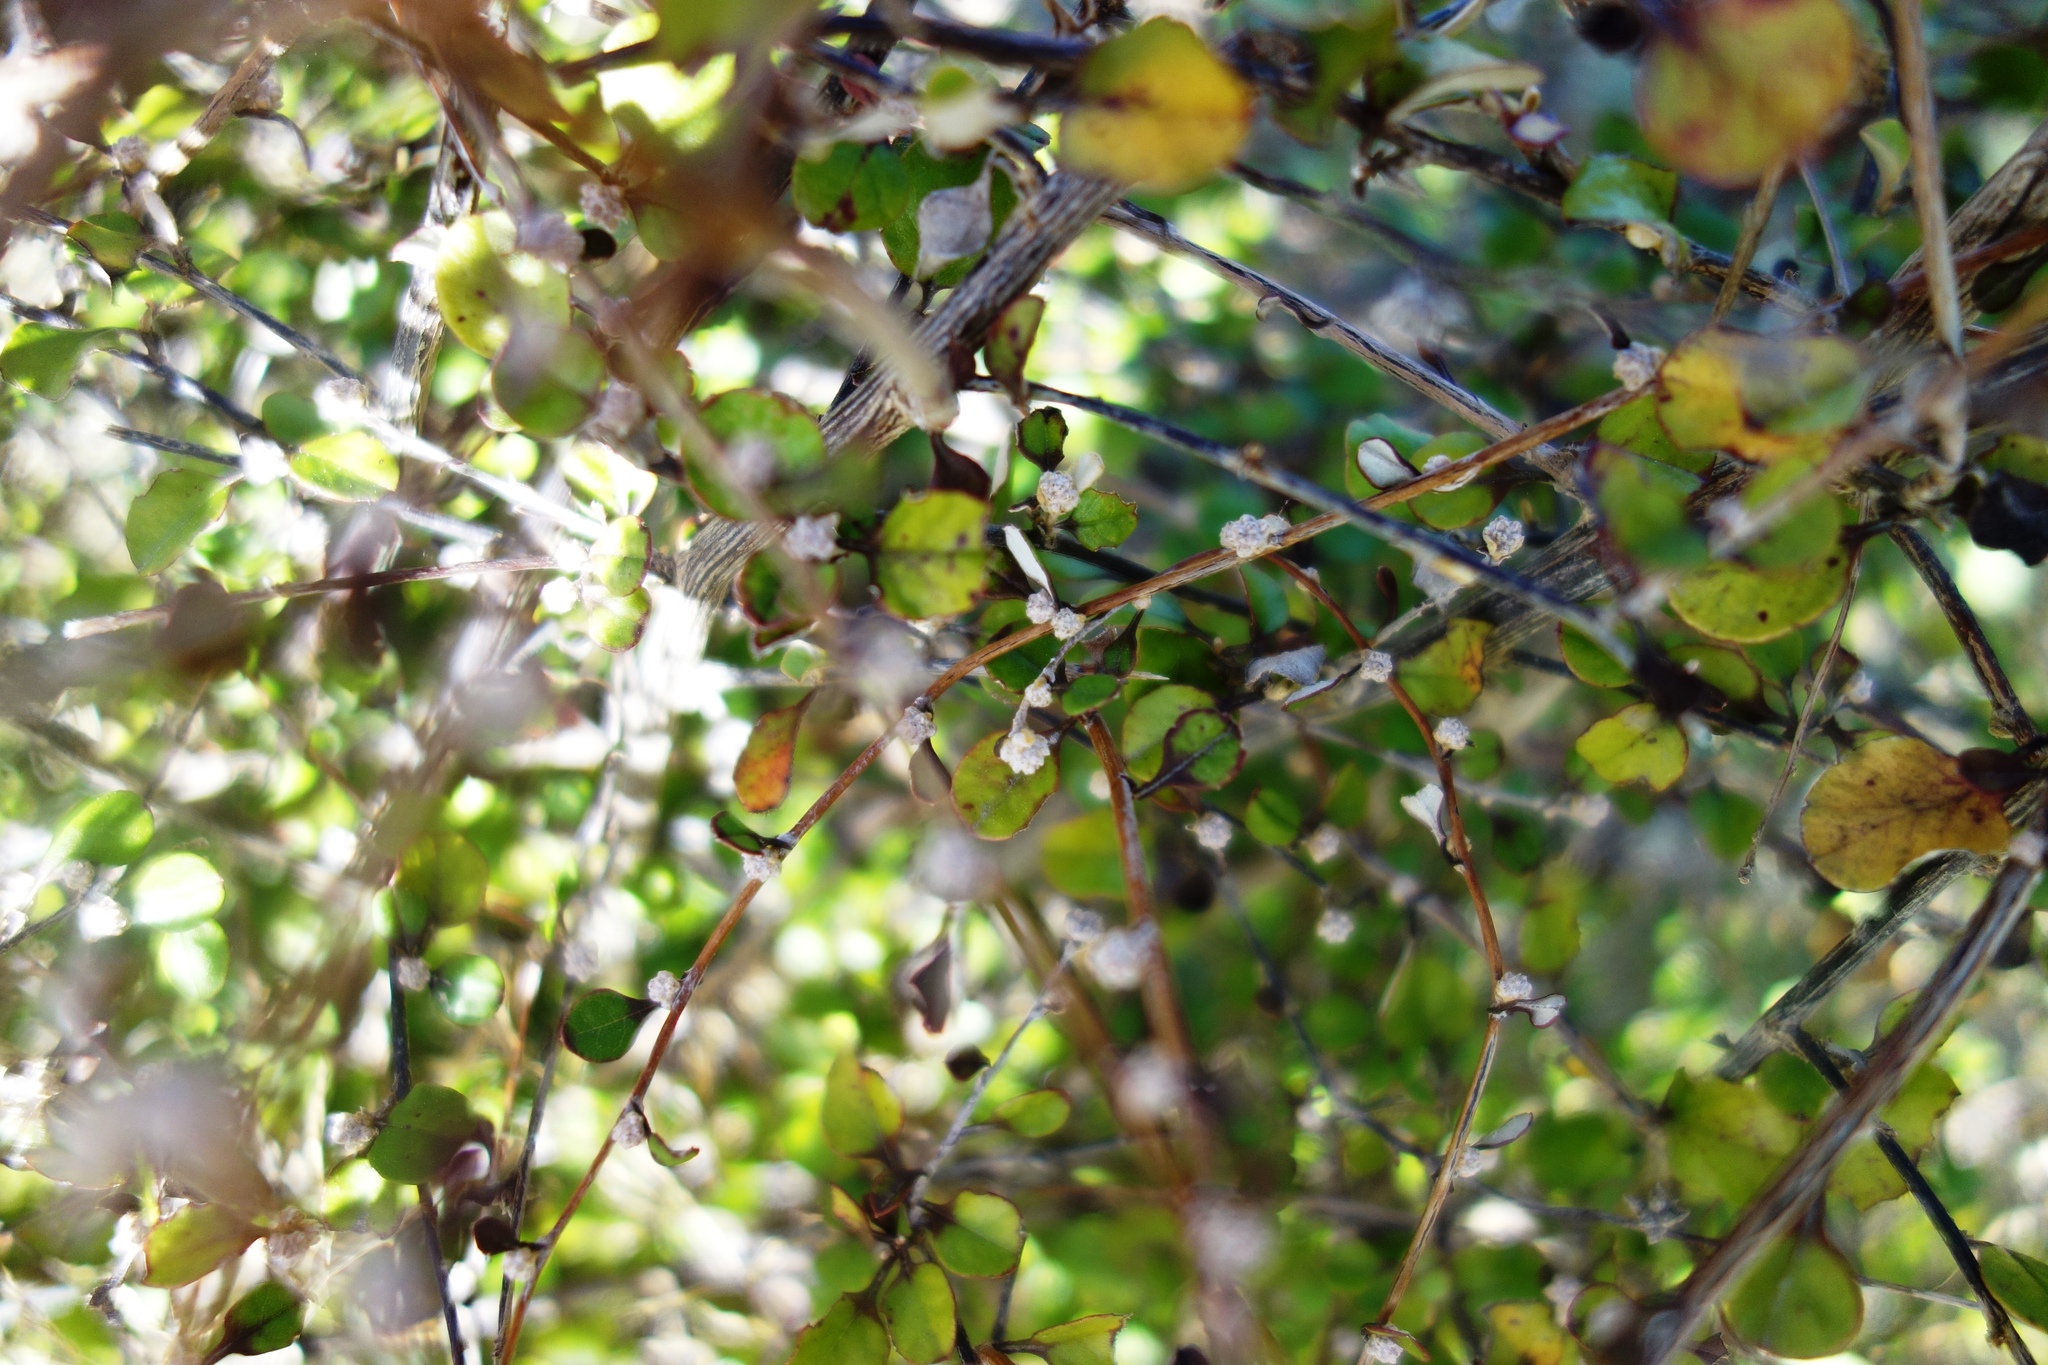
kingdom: Plantae
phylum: Tracheophyta
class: Magnoliopsida
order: Asterales
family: Asteraceae
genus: Ozothamnus
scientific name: Ozothamnus glomeratus
